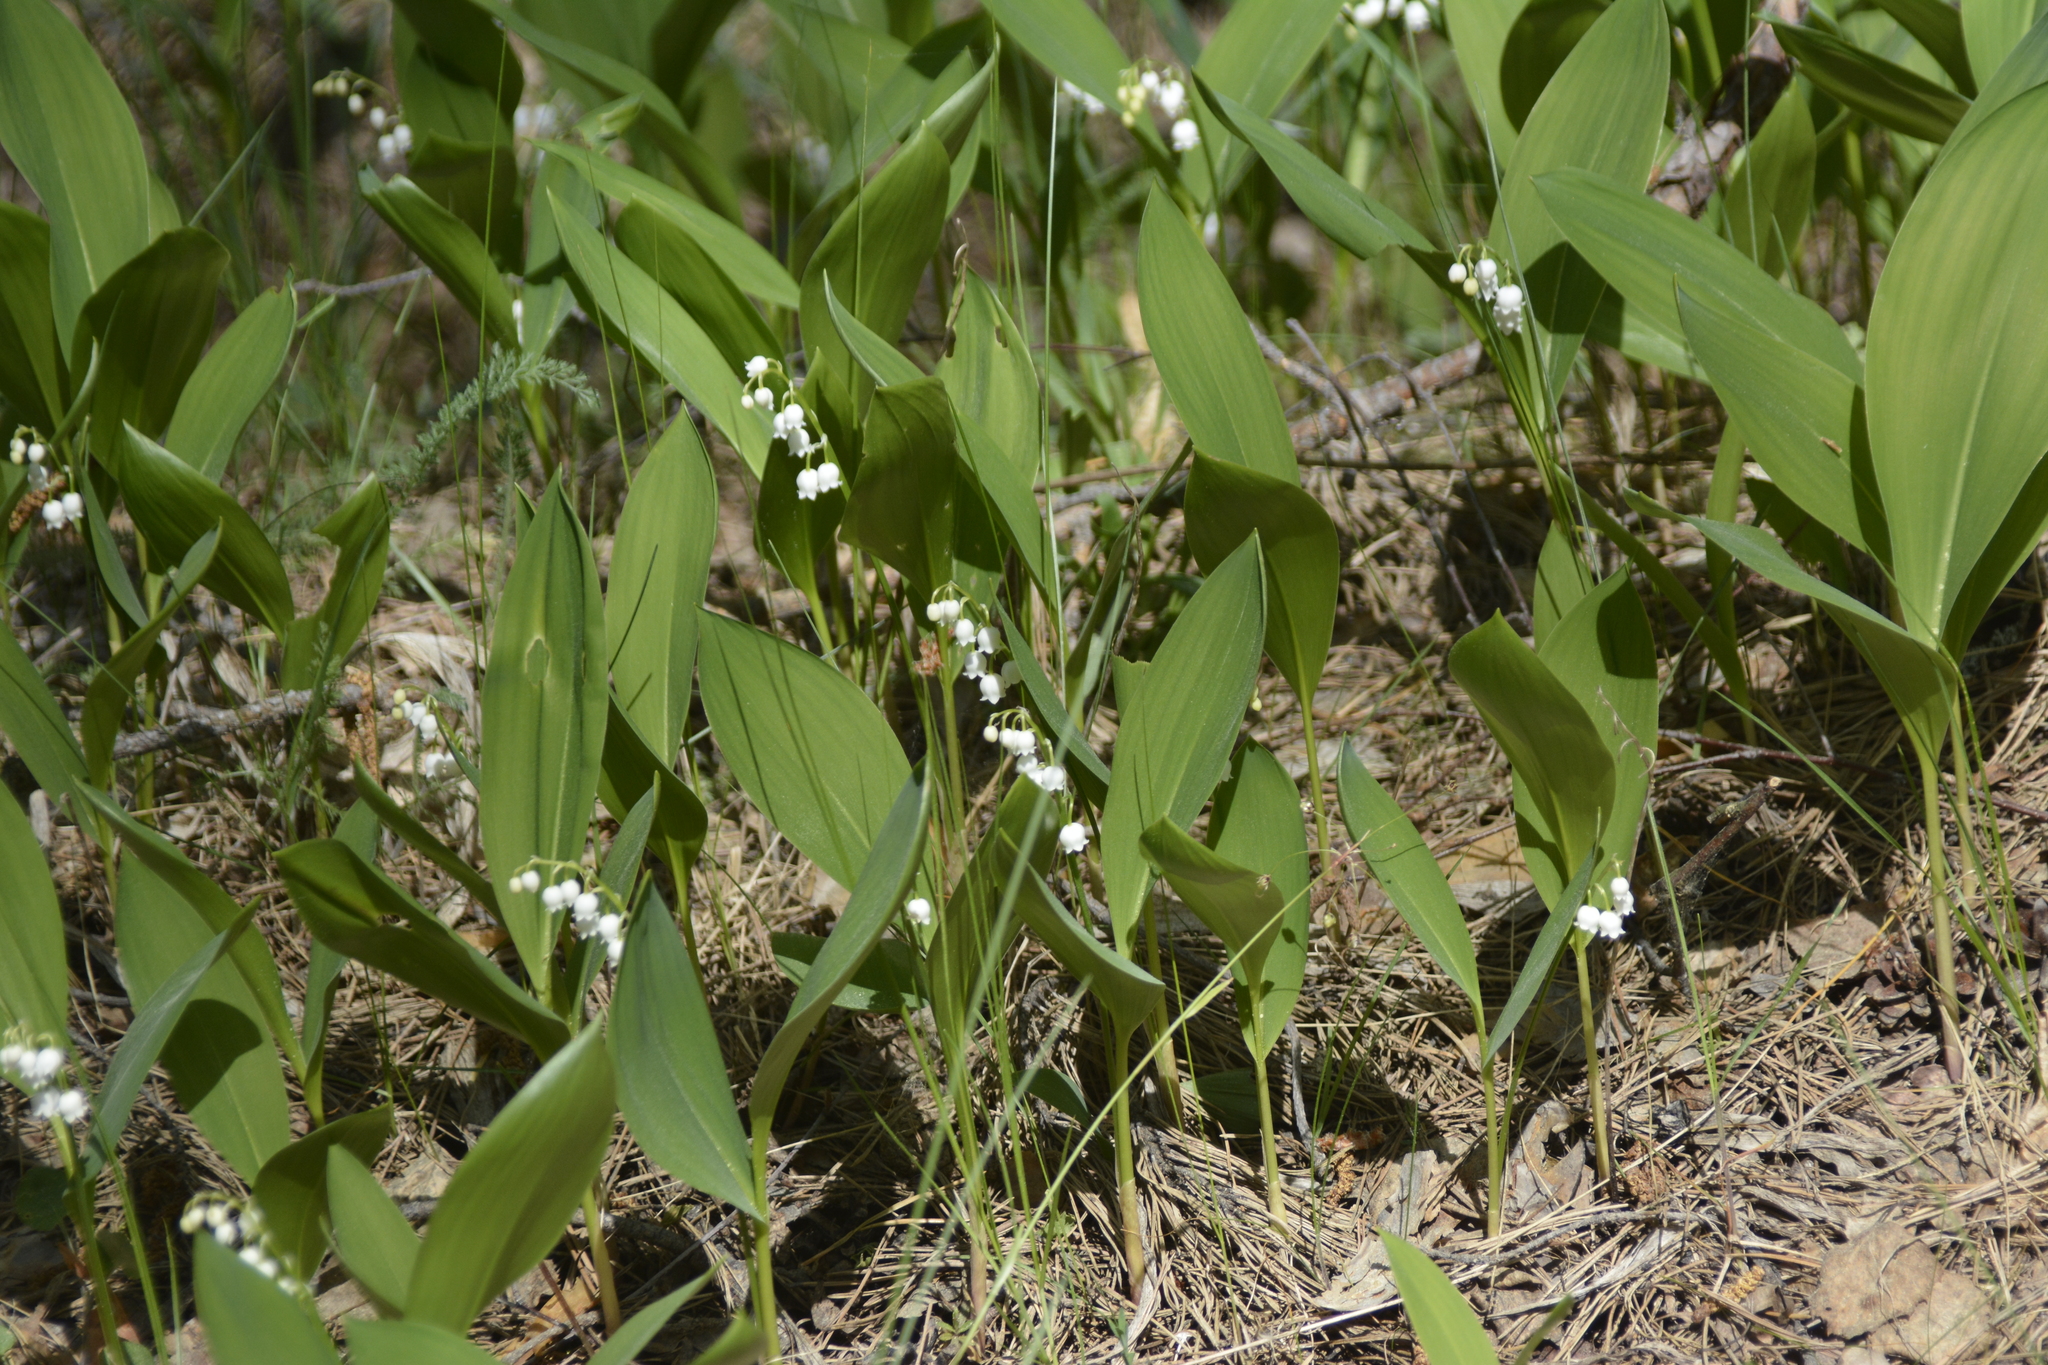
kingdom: Plantae
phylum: Tracheophyta
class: Liliopsida
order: Asparagales
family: Asparagaceae
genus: Convallaria
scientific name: Convallaria majalis
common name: Lily-of-the-valley
